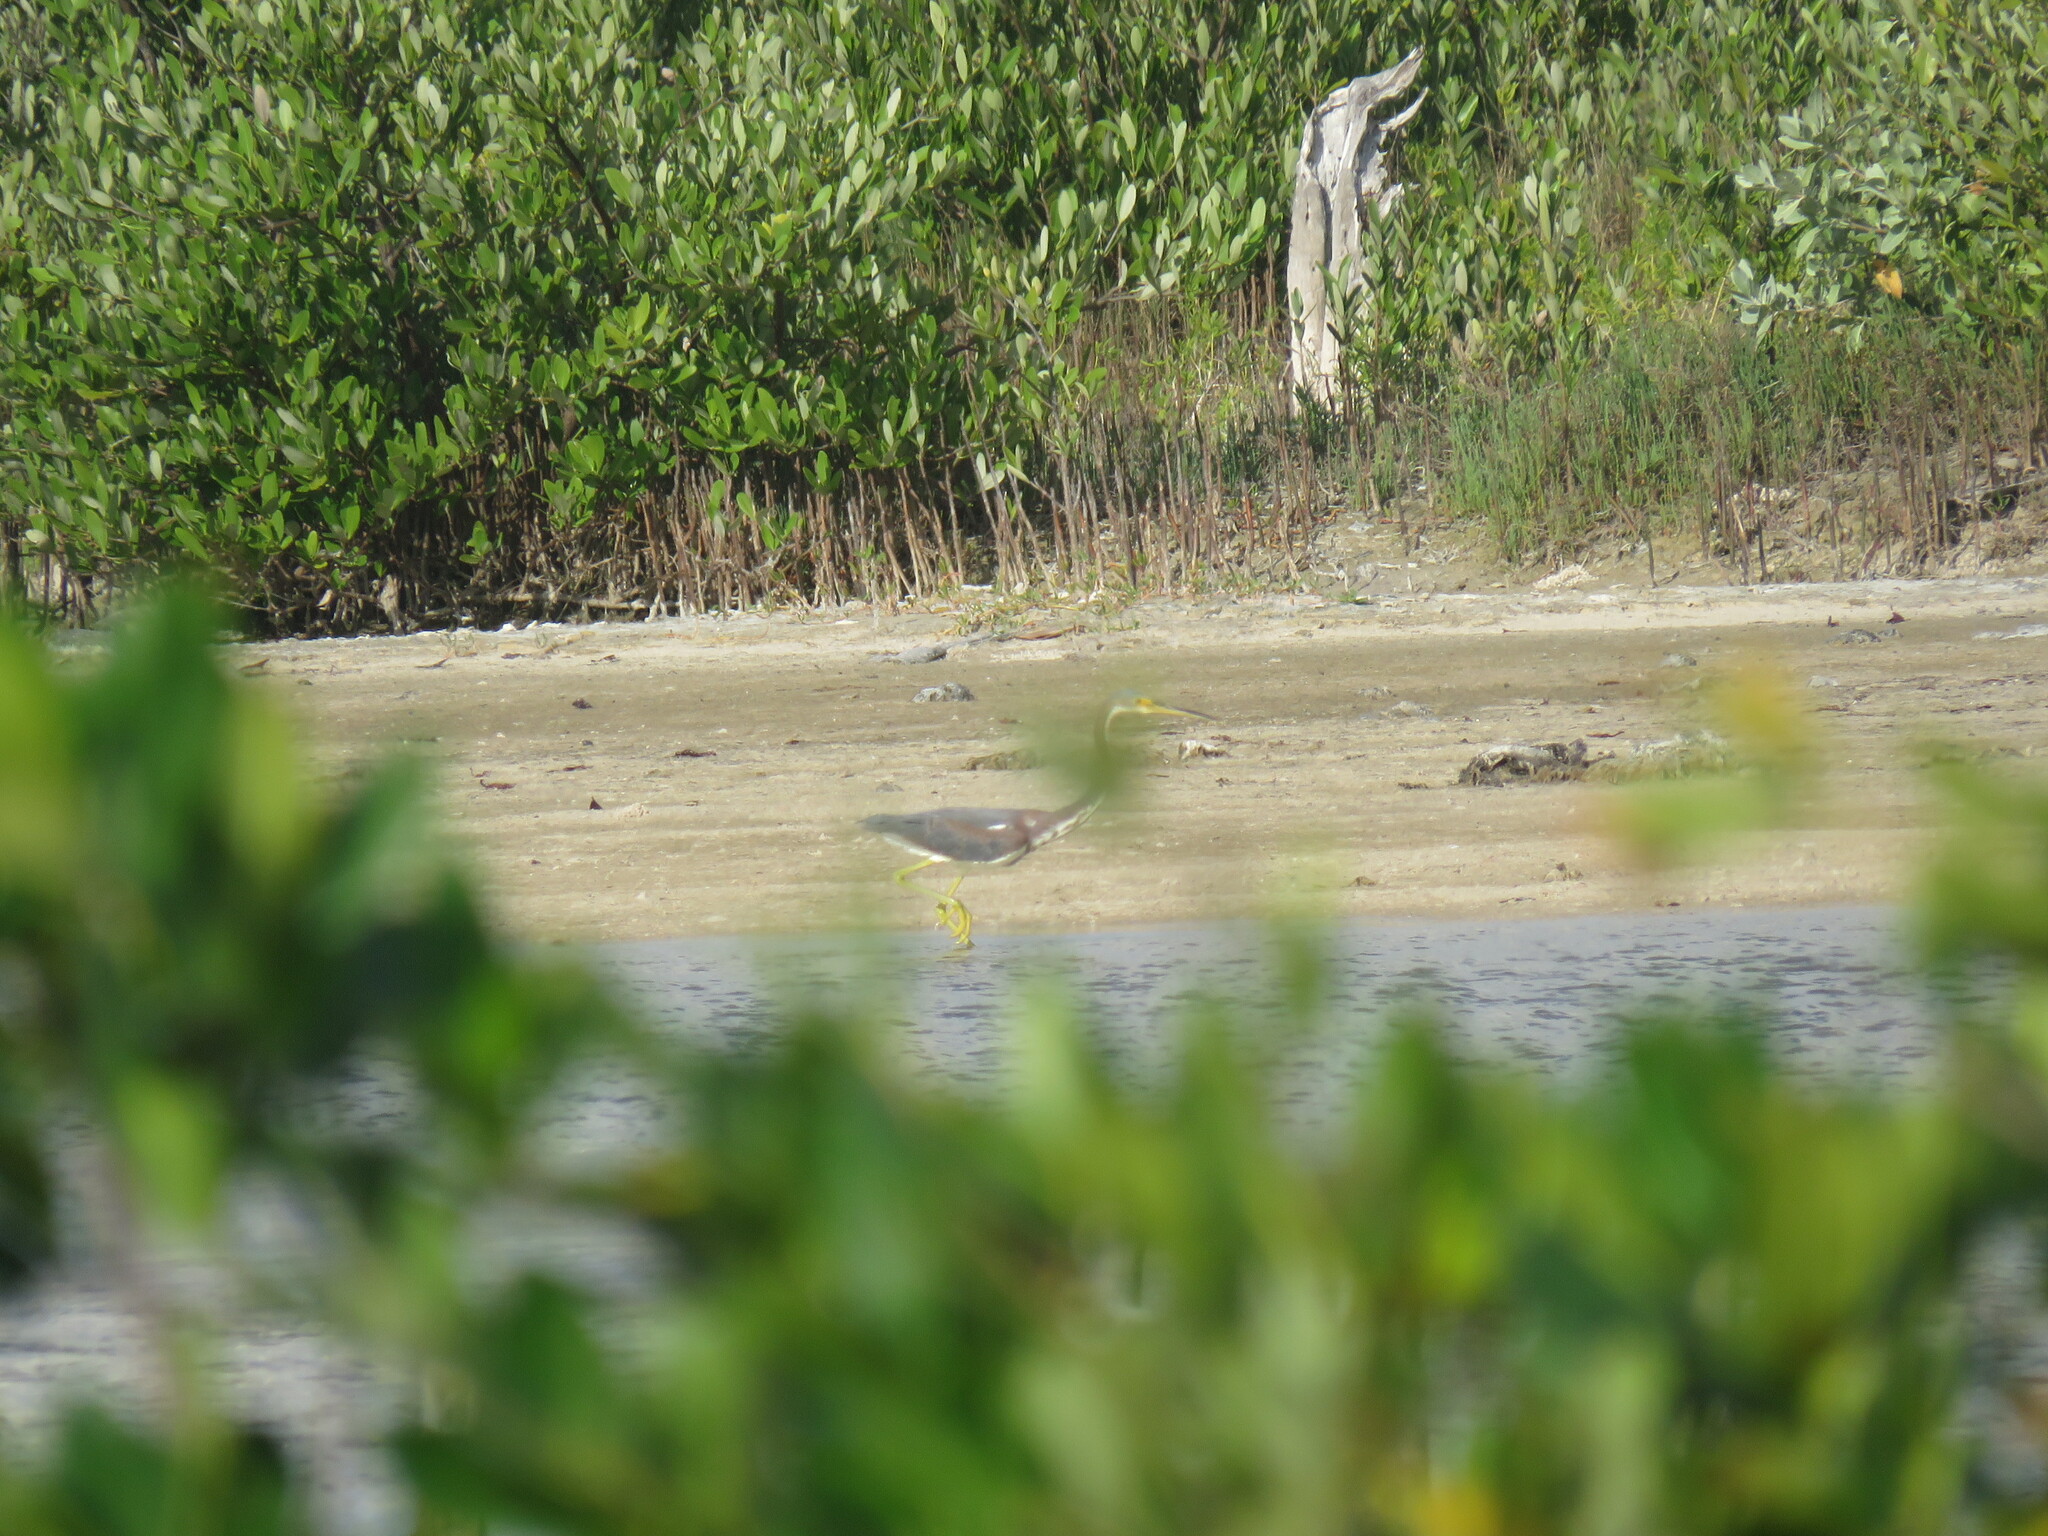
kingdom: Animalia
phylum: Chordata
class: Aves
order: Pelecaniformes
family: Ardeidae
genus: Egretta
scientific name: Egretta tricolor
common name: Tricolored heron
